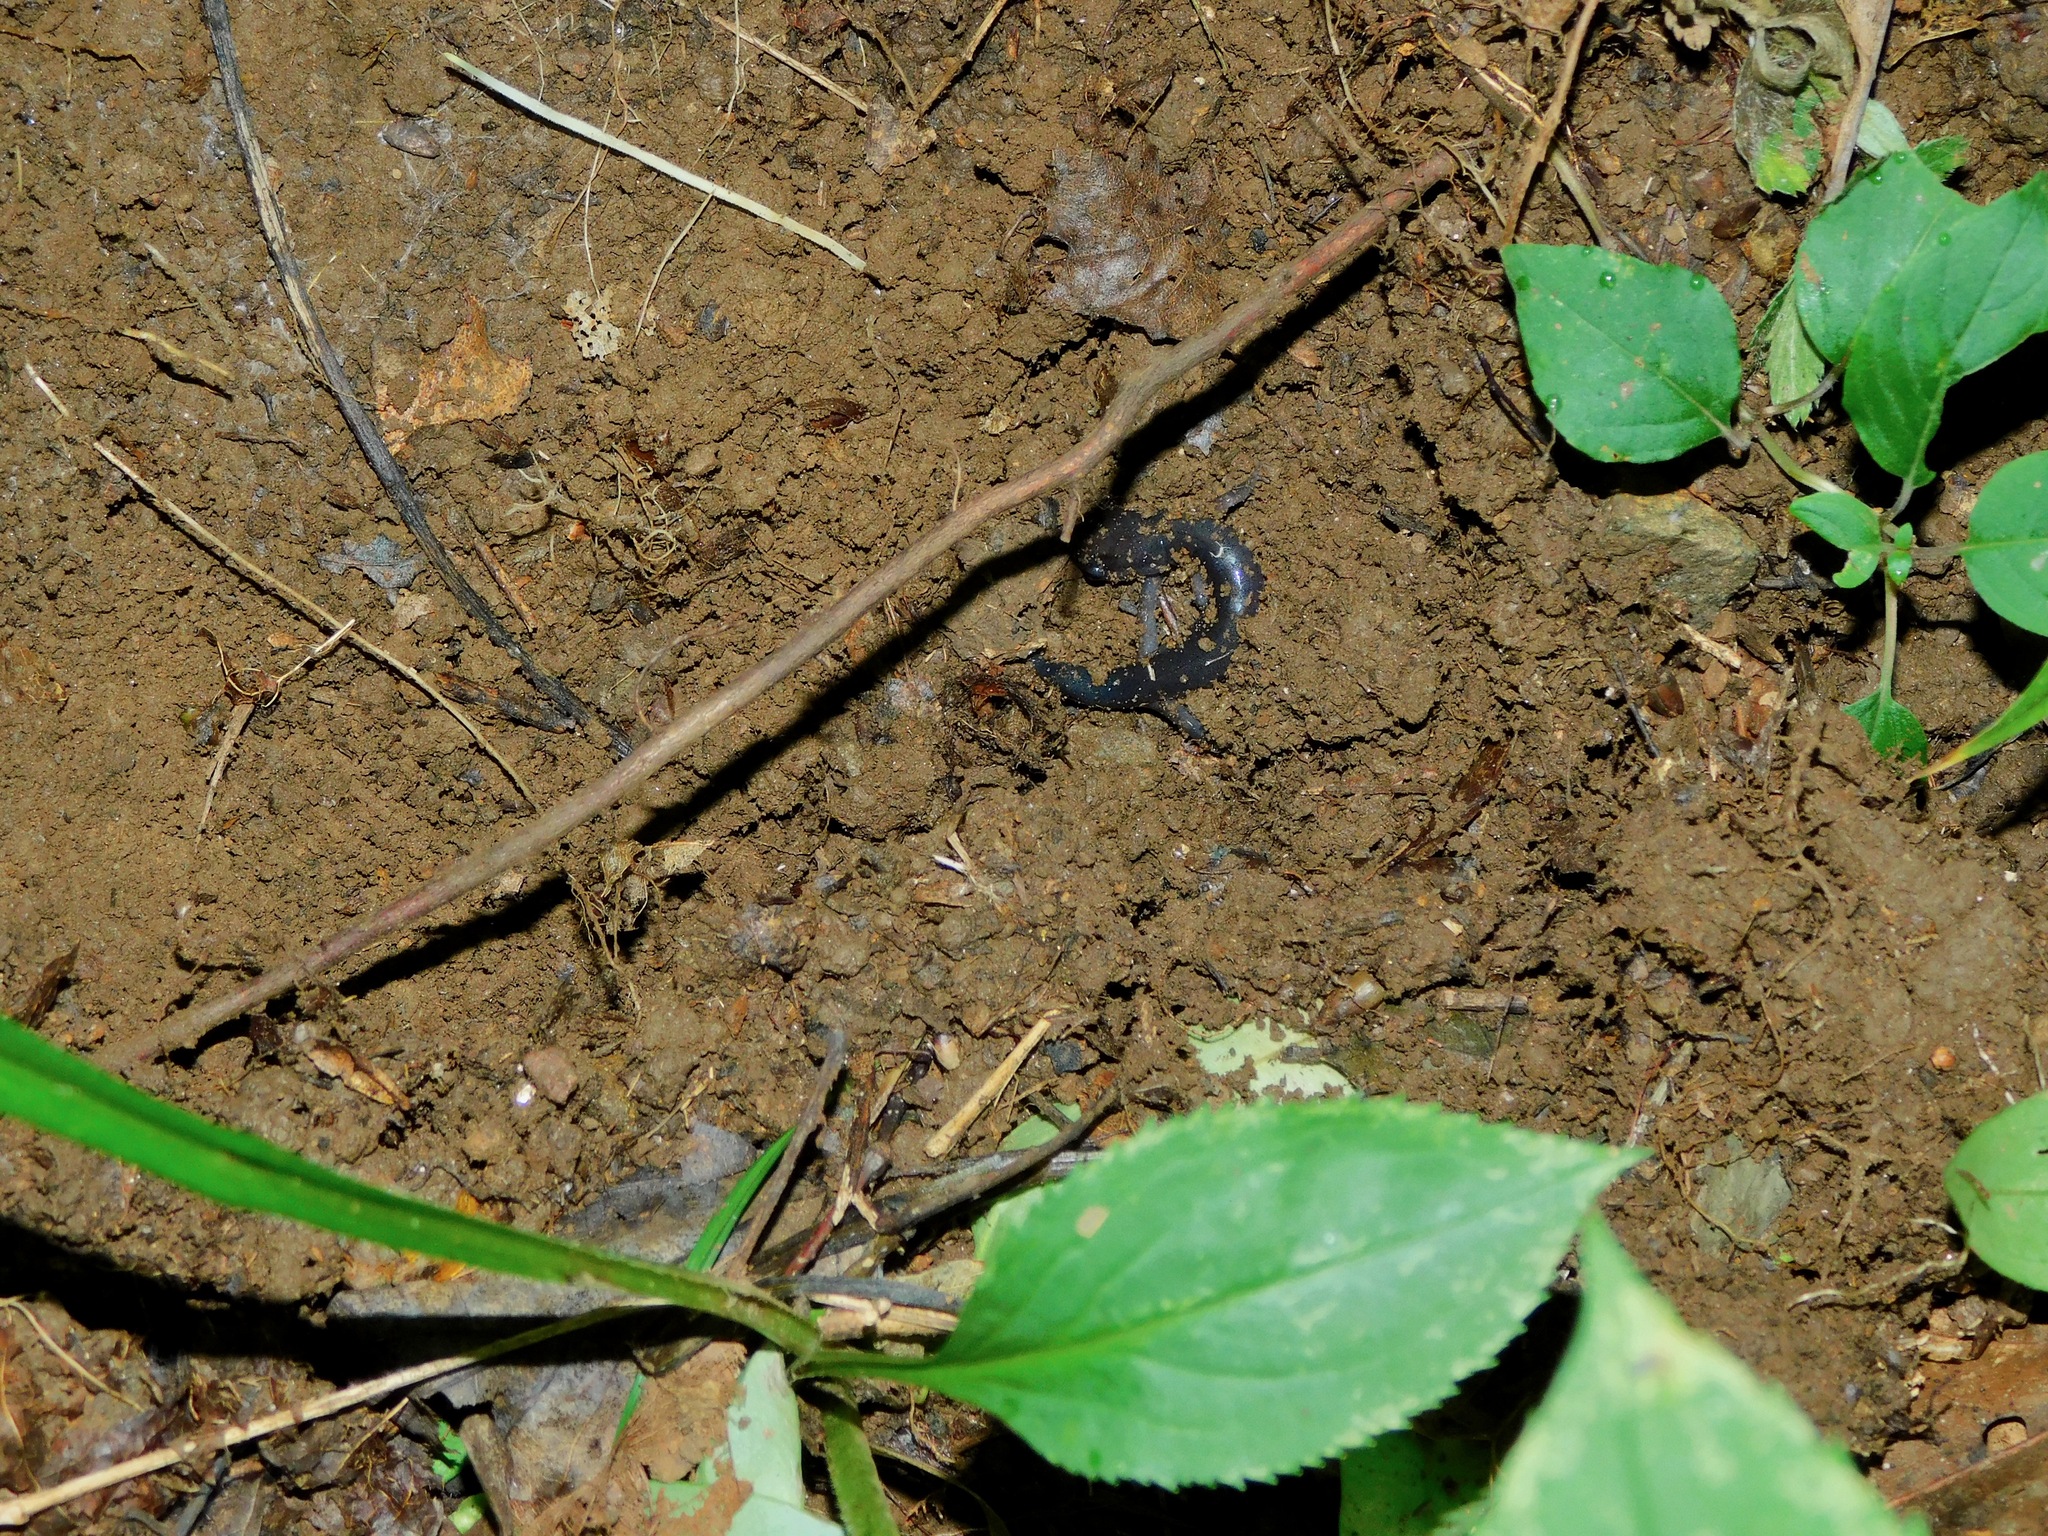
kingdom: Animalia
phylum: Chordata
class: Amphibia
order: Caudata
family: Plethodontidae
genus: Plethodon
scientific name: Plethodon shermani
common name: Red-legged salamander
